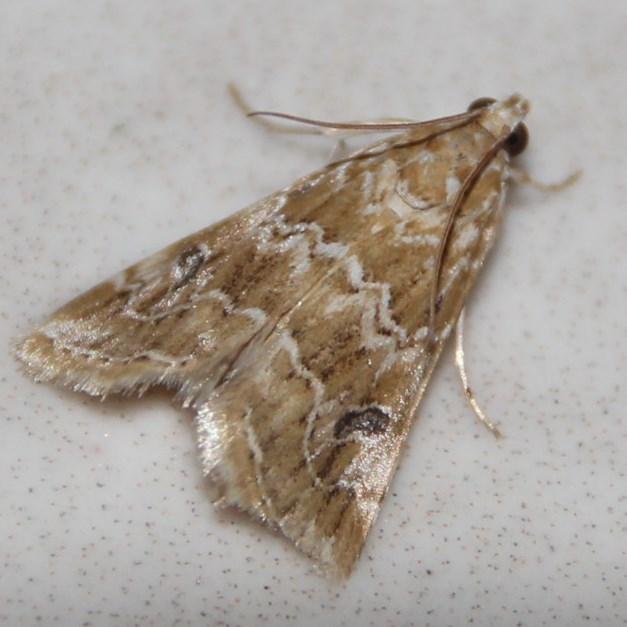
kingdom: Animalia
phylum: Arthropoda
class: Insecta
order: Lepidoptera
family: Crambidae
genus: Hellula
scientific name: Hellula undalis
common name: Cabbage webworm
